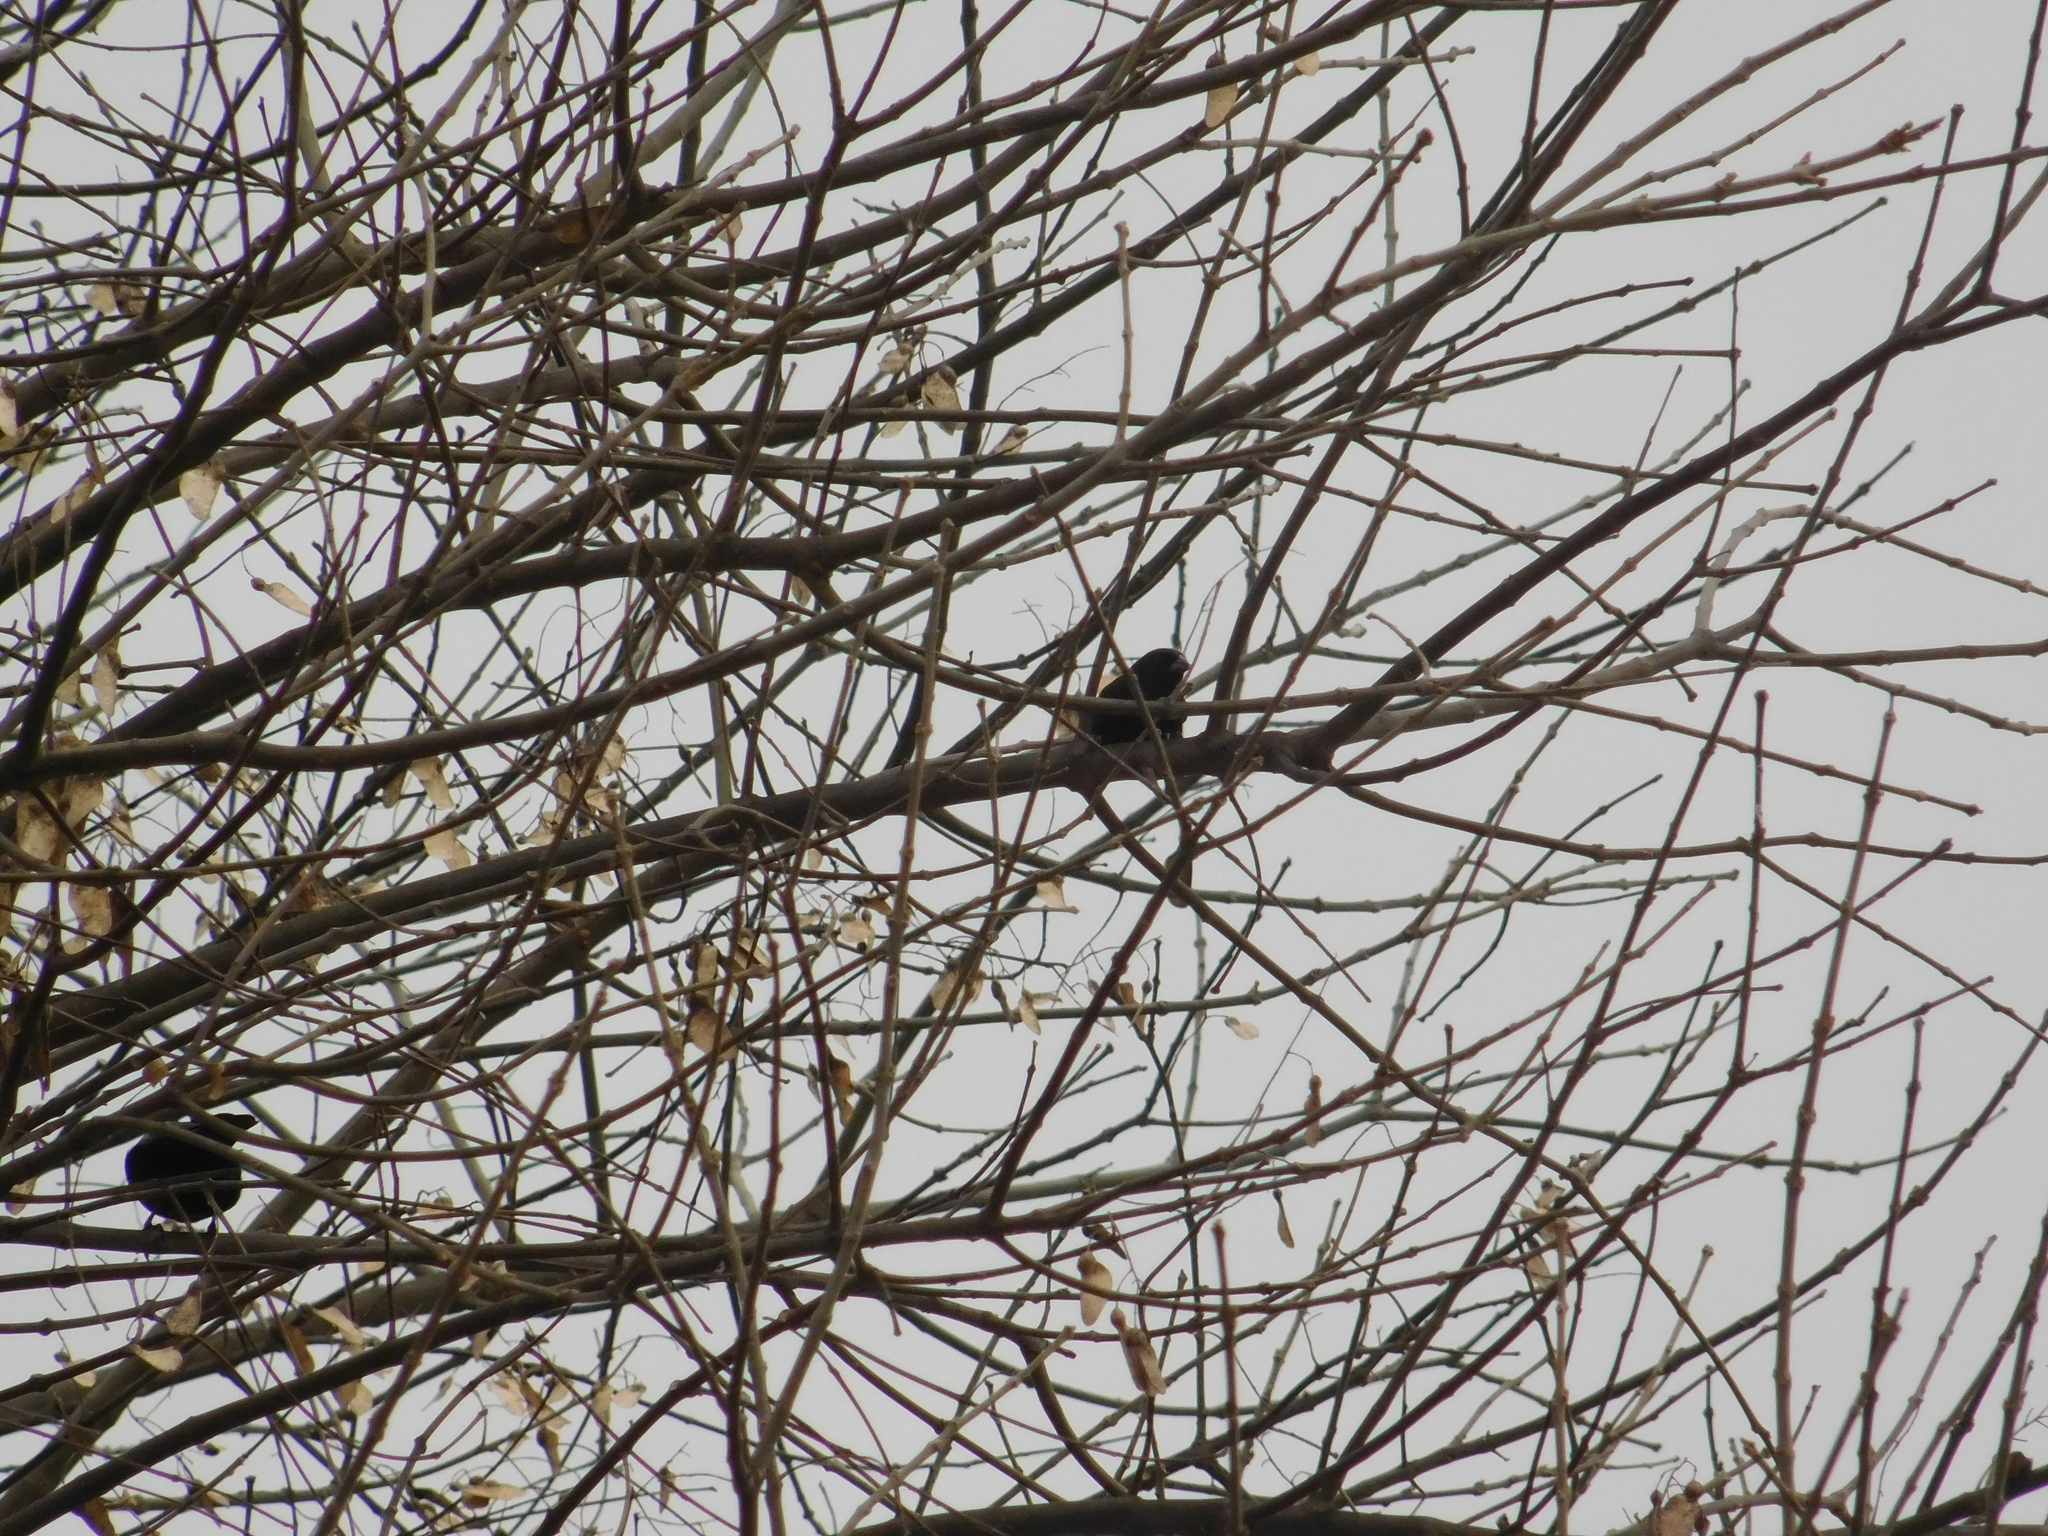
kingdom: Animalia
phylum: Chordata
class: Aves
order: Passeriformes
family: Icteridae
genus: Molothrus
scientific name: Molothrus bonariensis
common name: Shiny cowbird
